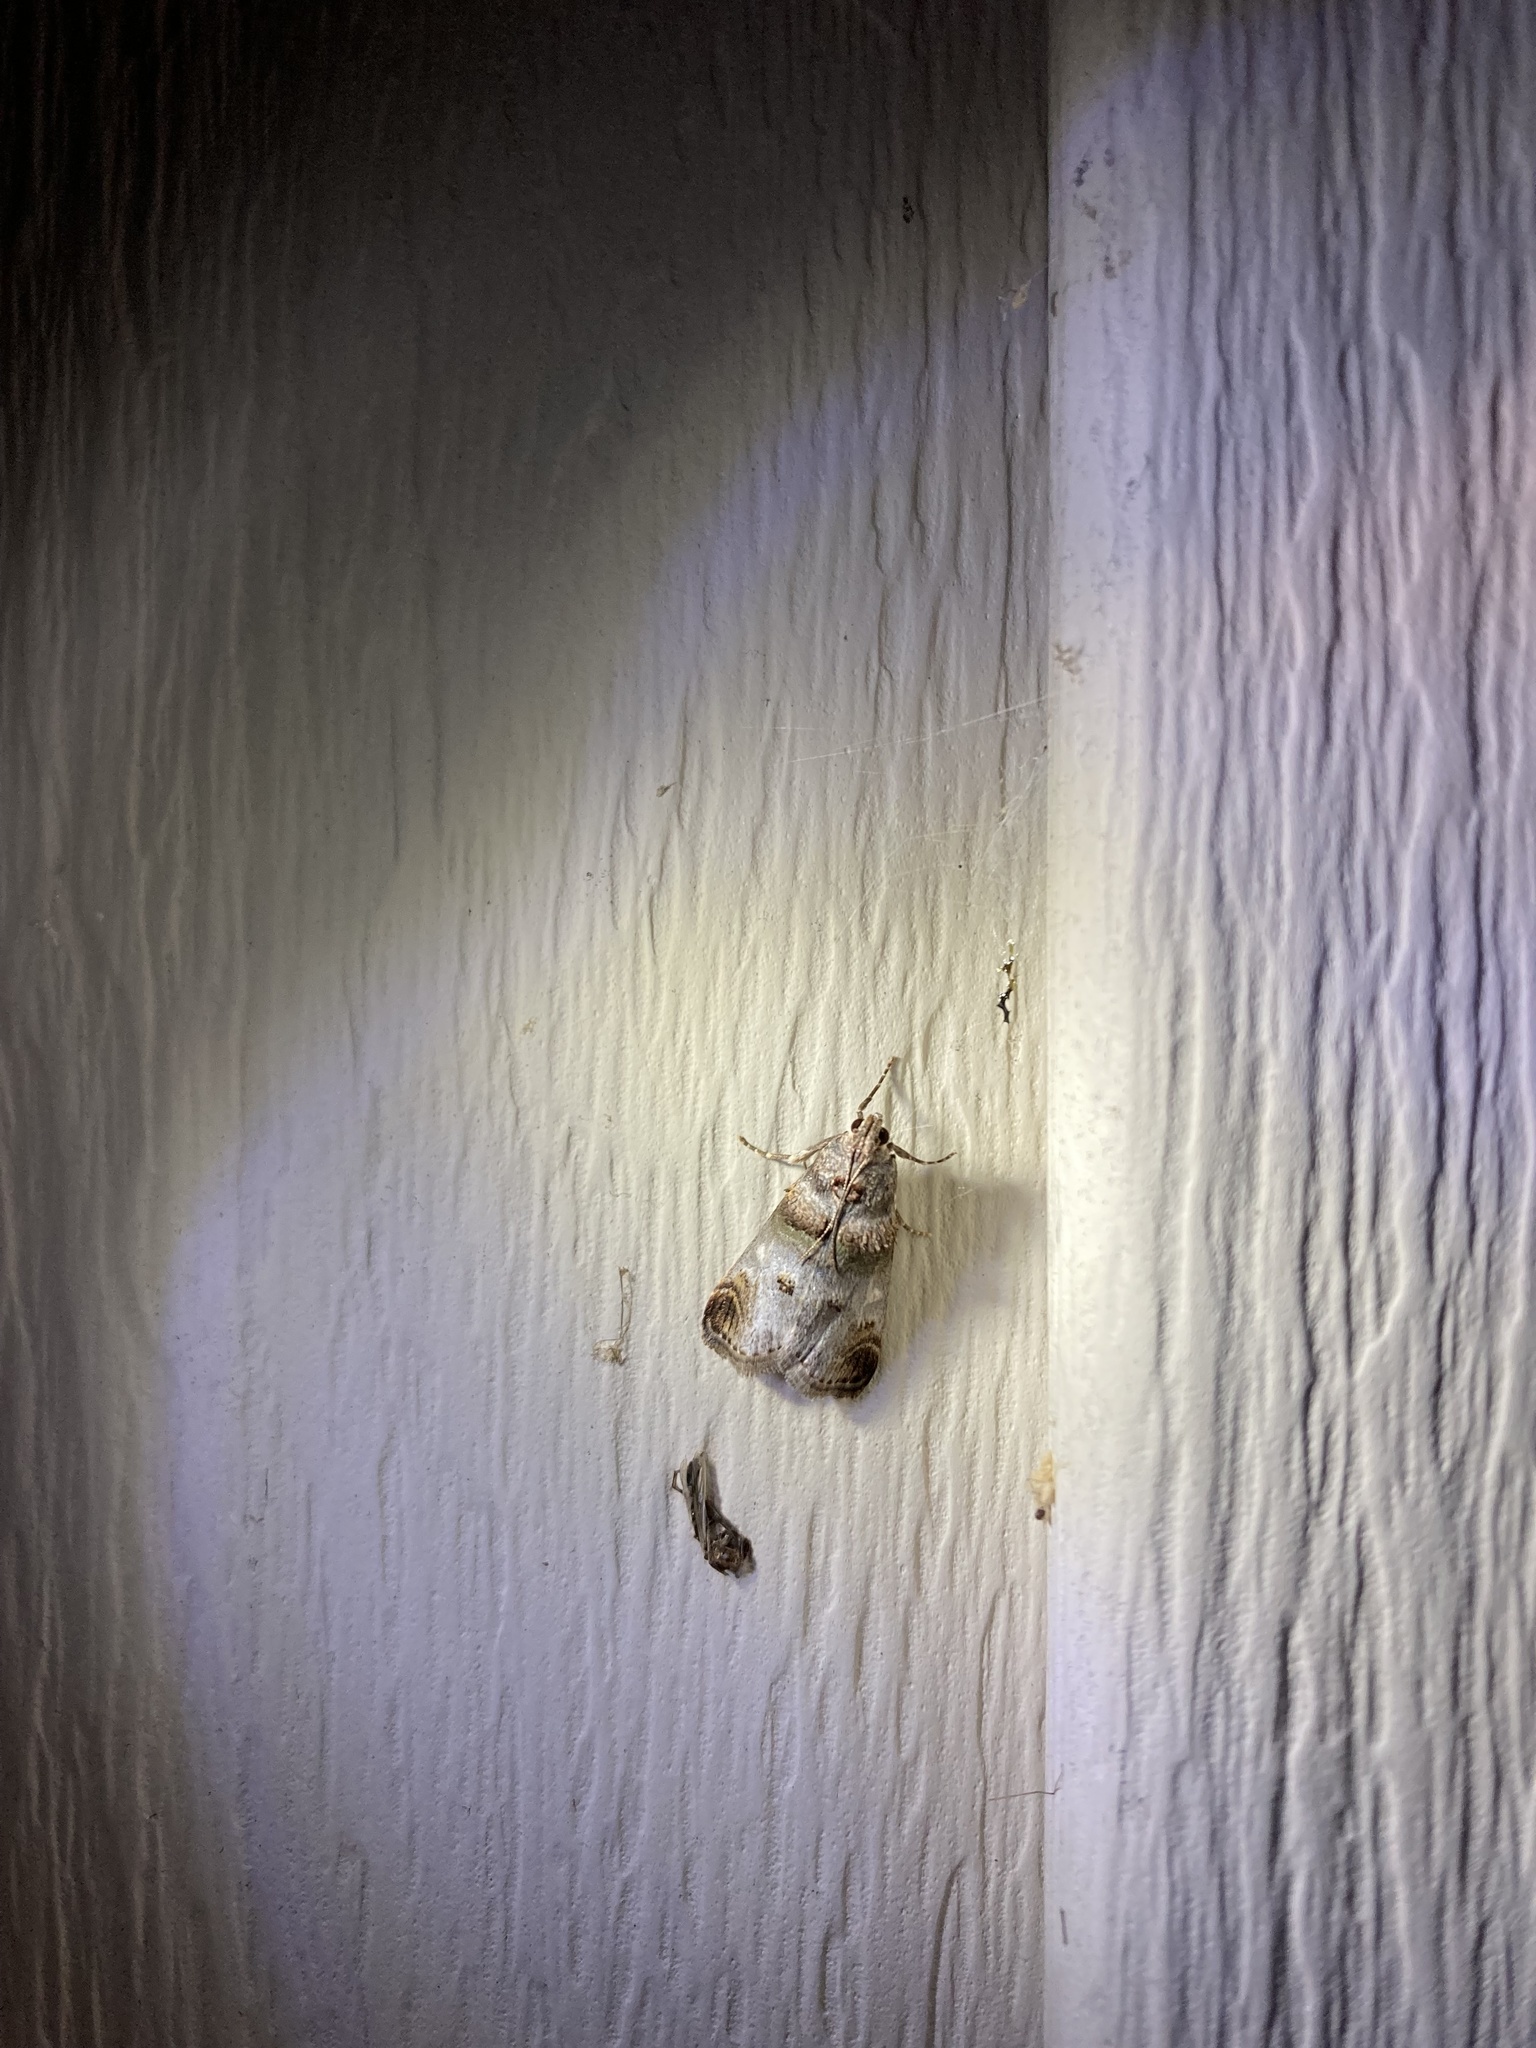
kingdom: Animalia
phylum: Arthropoda
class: Insecta
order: Lepidoptera
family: Pyralidae
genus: Oneida
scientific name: Oneida lunulalis
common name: Orange-tufted oneida moth
